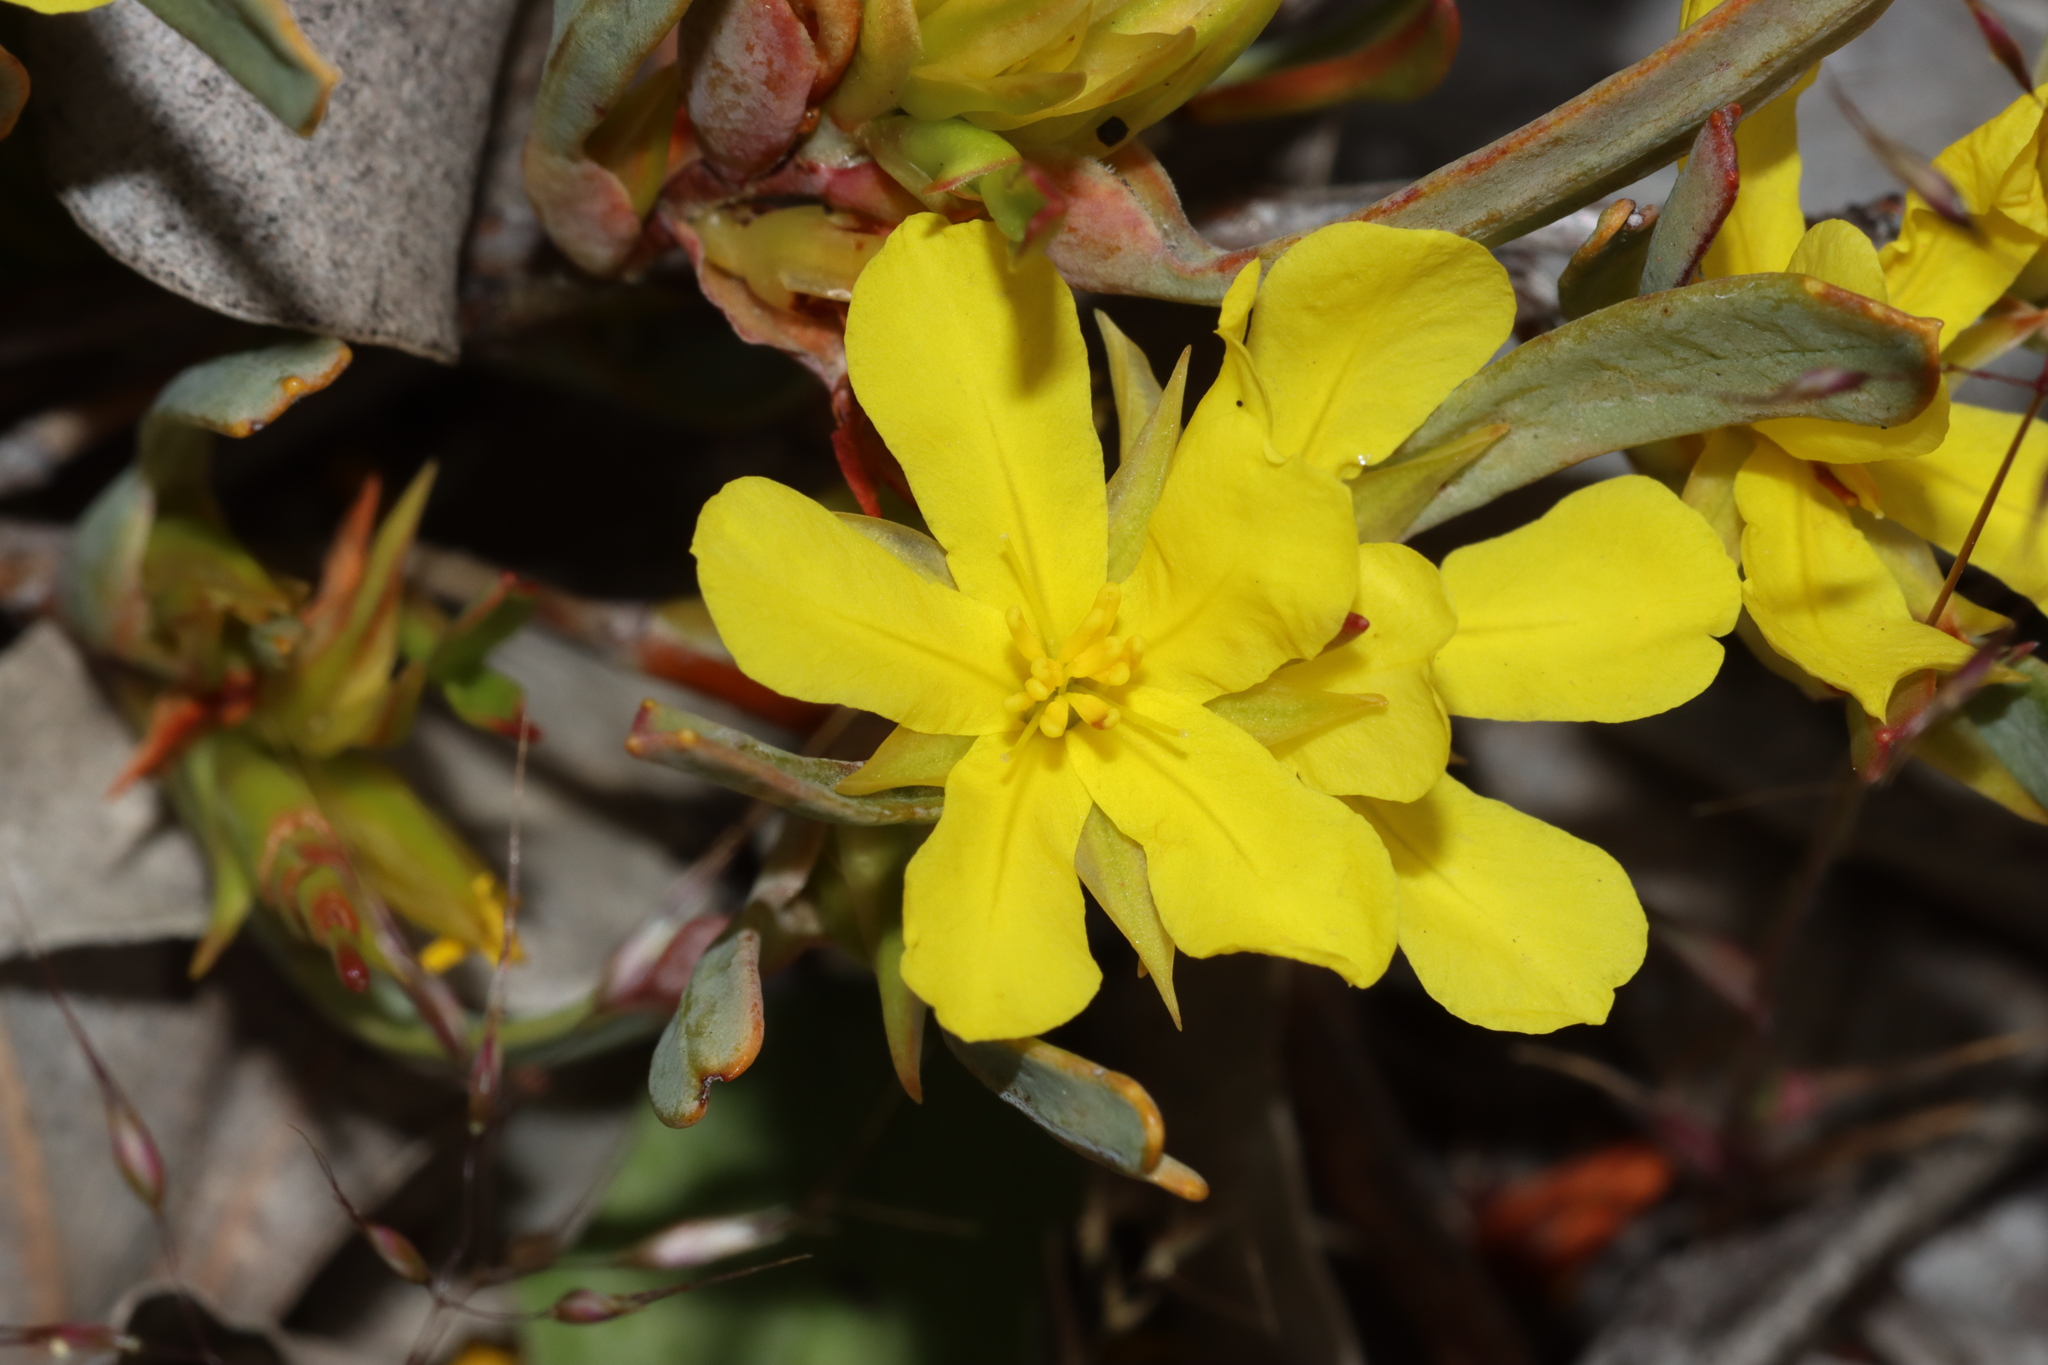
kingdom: Plantae
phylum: Tracheophyta
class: Magnoliopsida
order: Dilleniales
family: Dilleniaceae
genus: Hibbertia
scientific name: Hibbertia subvaginata
